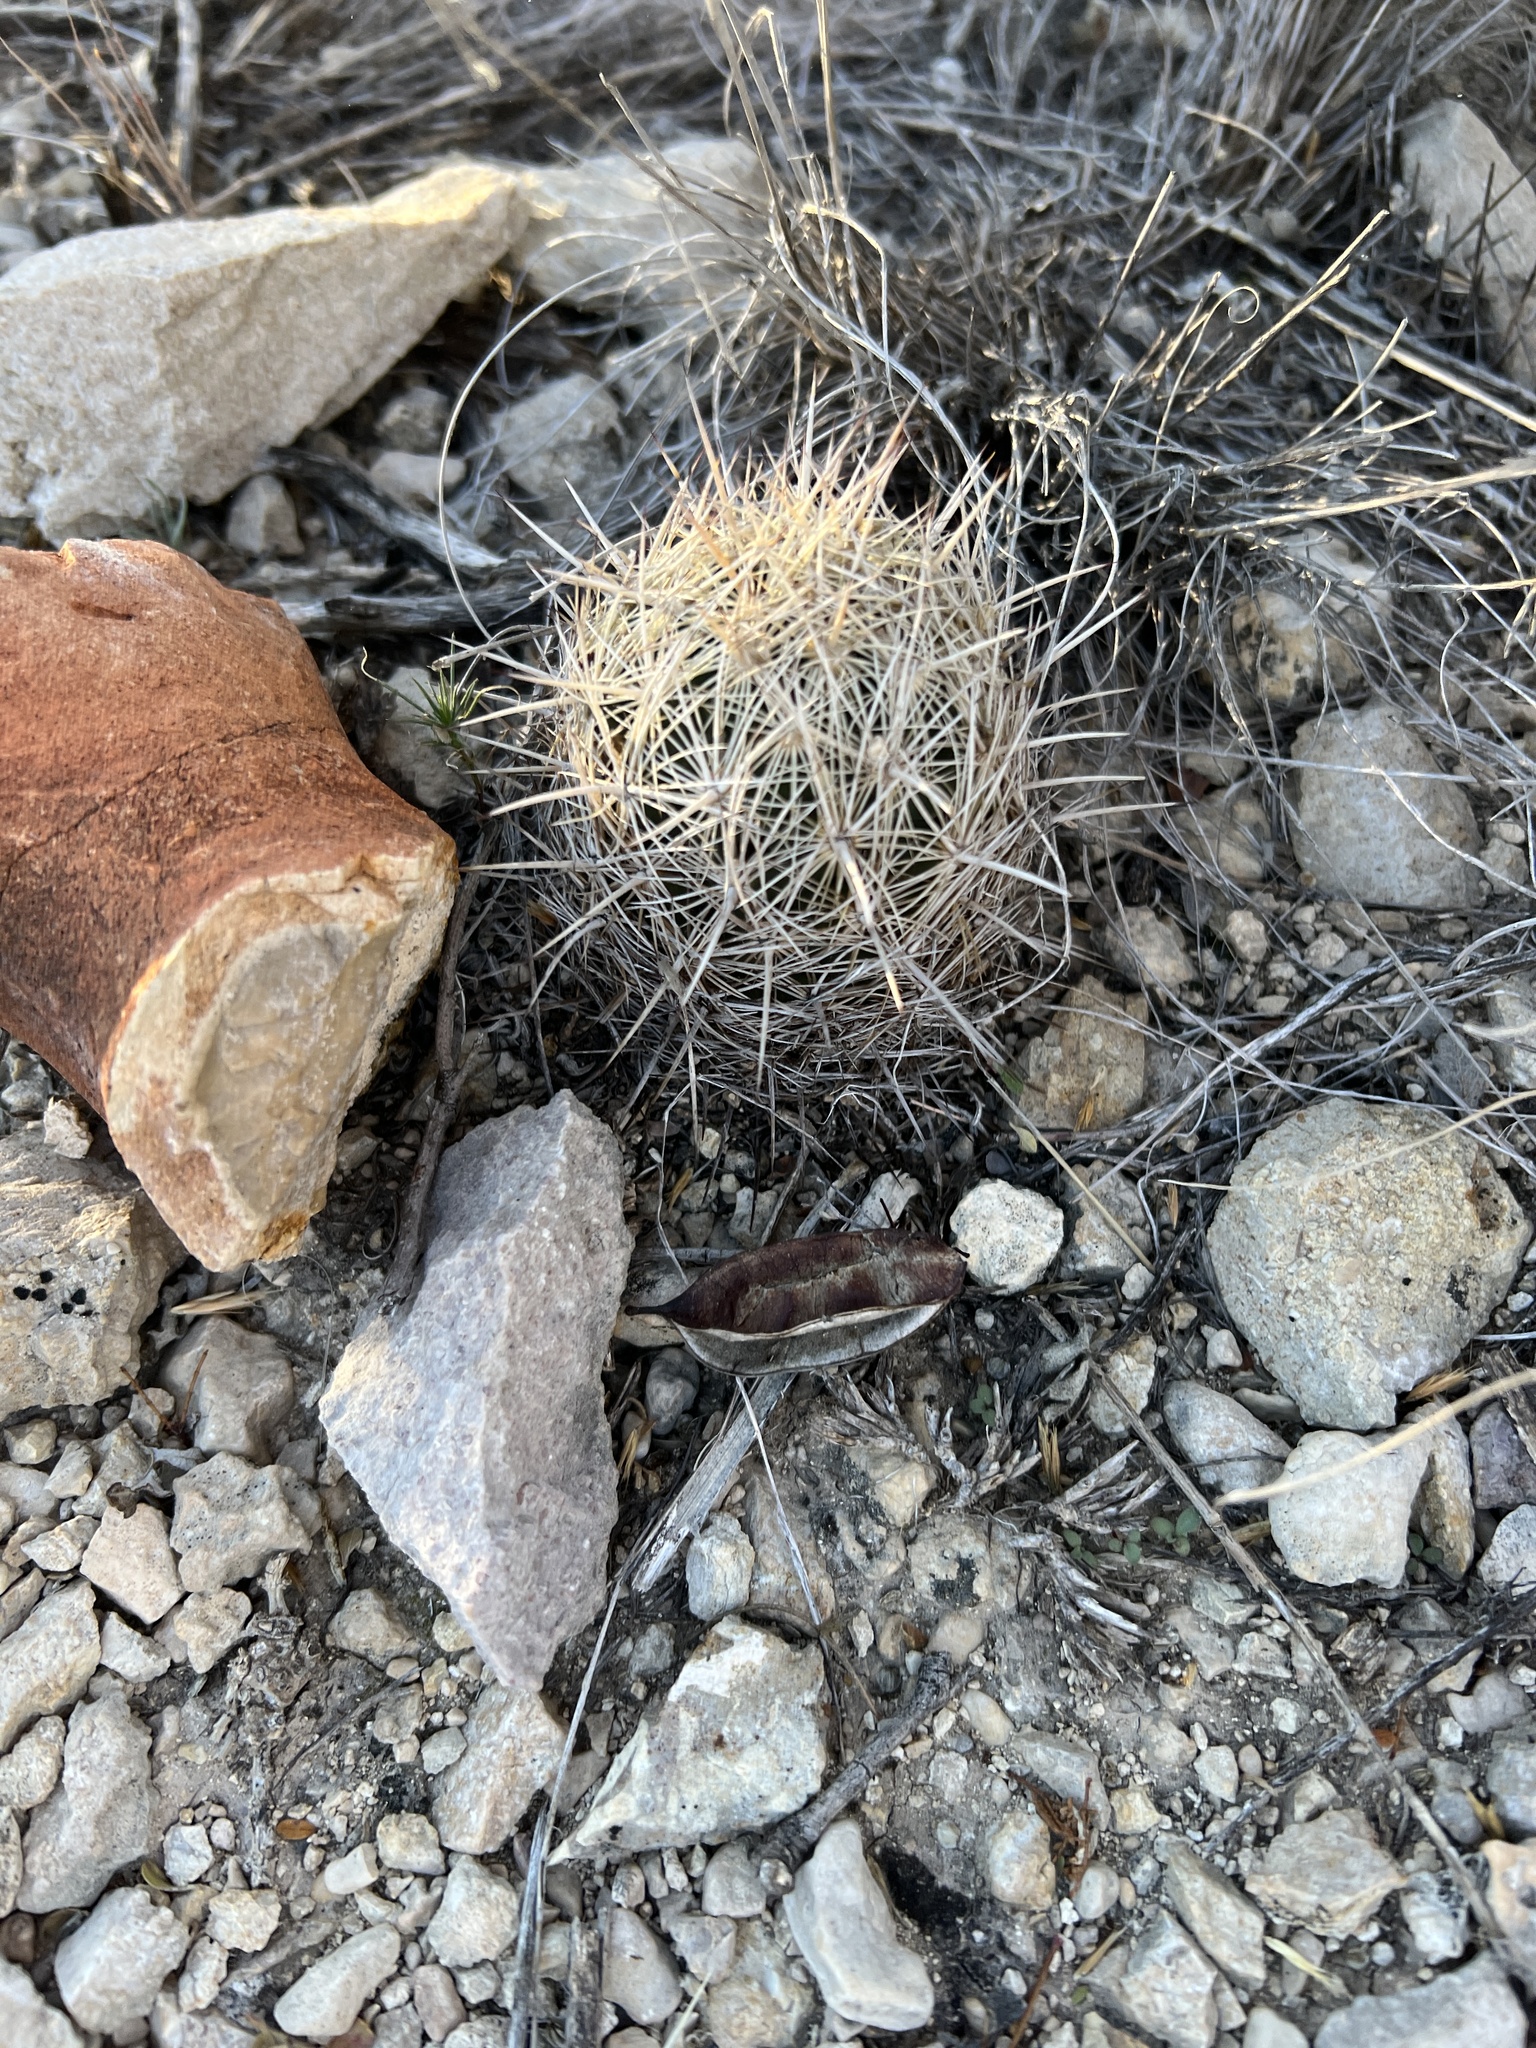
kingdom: Plantae
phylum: Tracheophyta
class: Magnoliopsida
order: Caryophyllales
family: Cactaceae
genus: Coryphantha
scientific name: Coryphantha echinus
